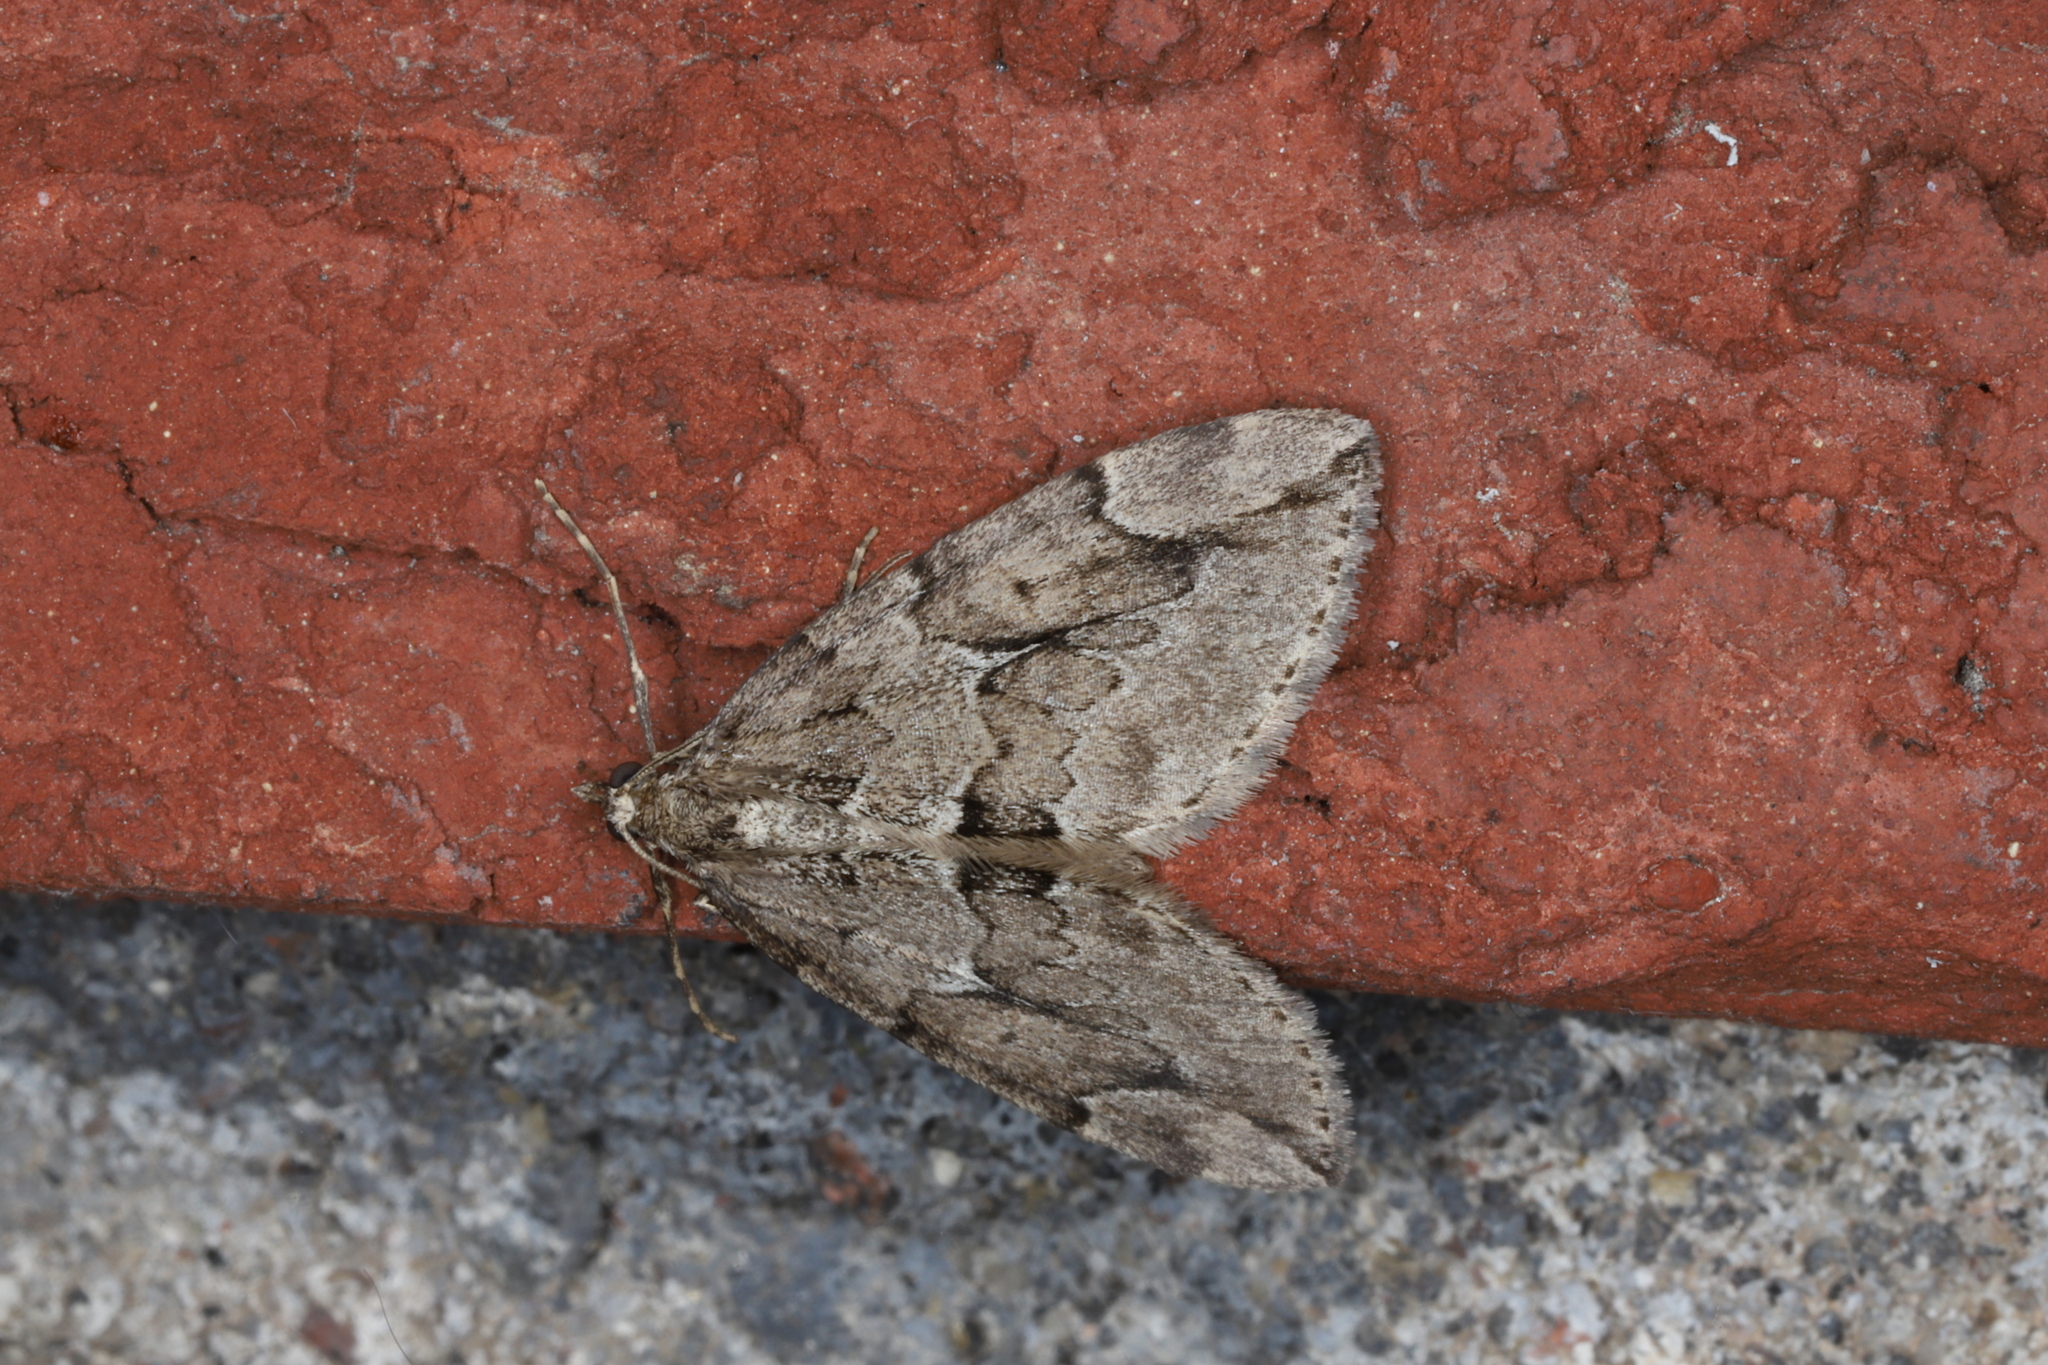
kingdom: Animalia
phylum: Arthropoda
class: Insecta
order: Lepidoptera
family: Geometridae
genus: Thera
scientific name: Thera juniperata
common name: Juniper carpet
